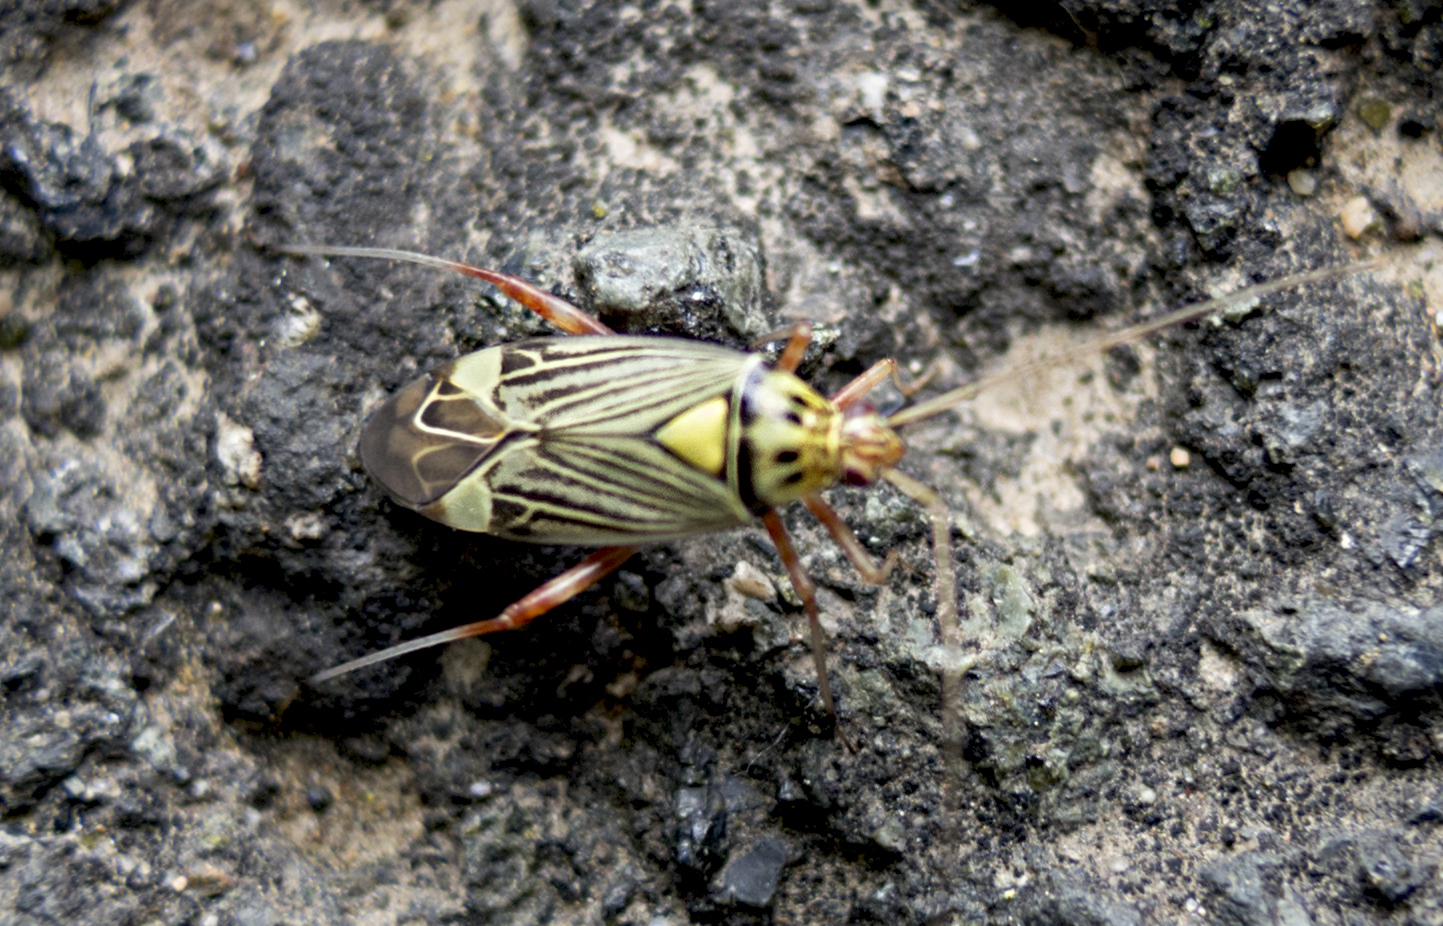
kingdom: Animalia
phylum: Arthropoda
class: Insecta
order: Hemiptera
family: Miridae
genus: Rhabdomiris
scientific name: Rhabdomiris striatellus
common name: Plant bug
